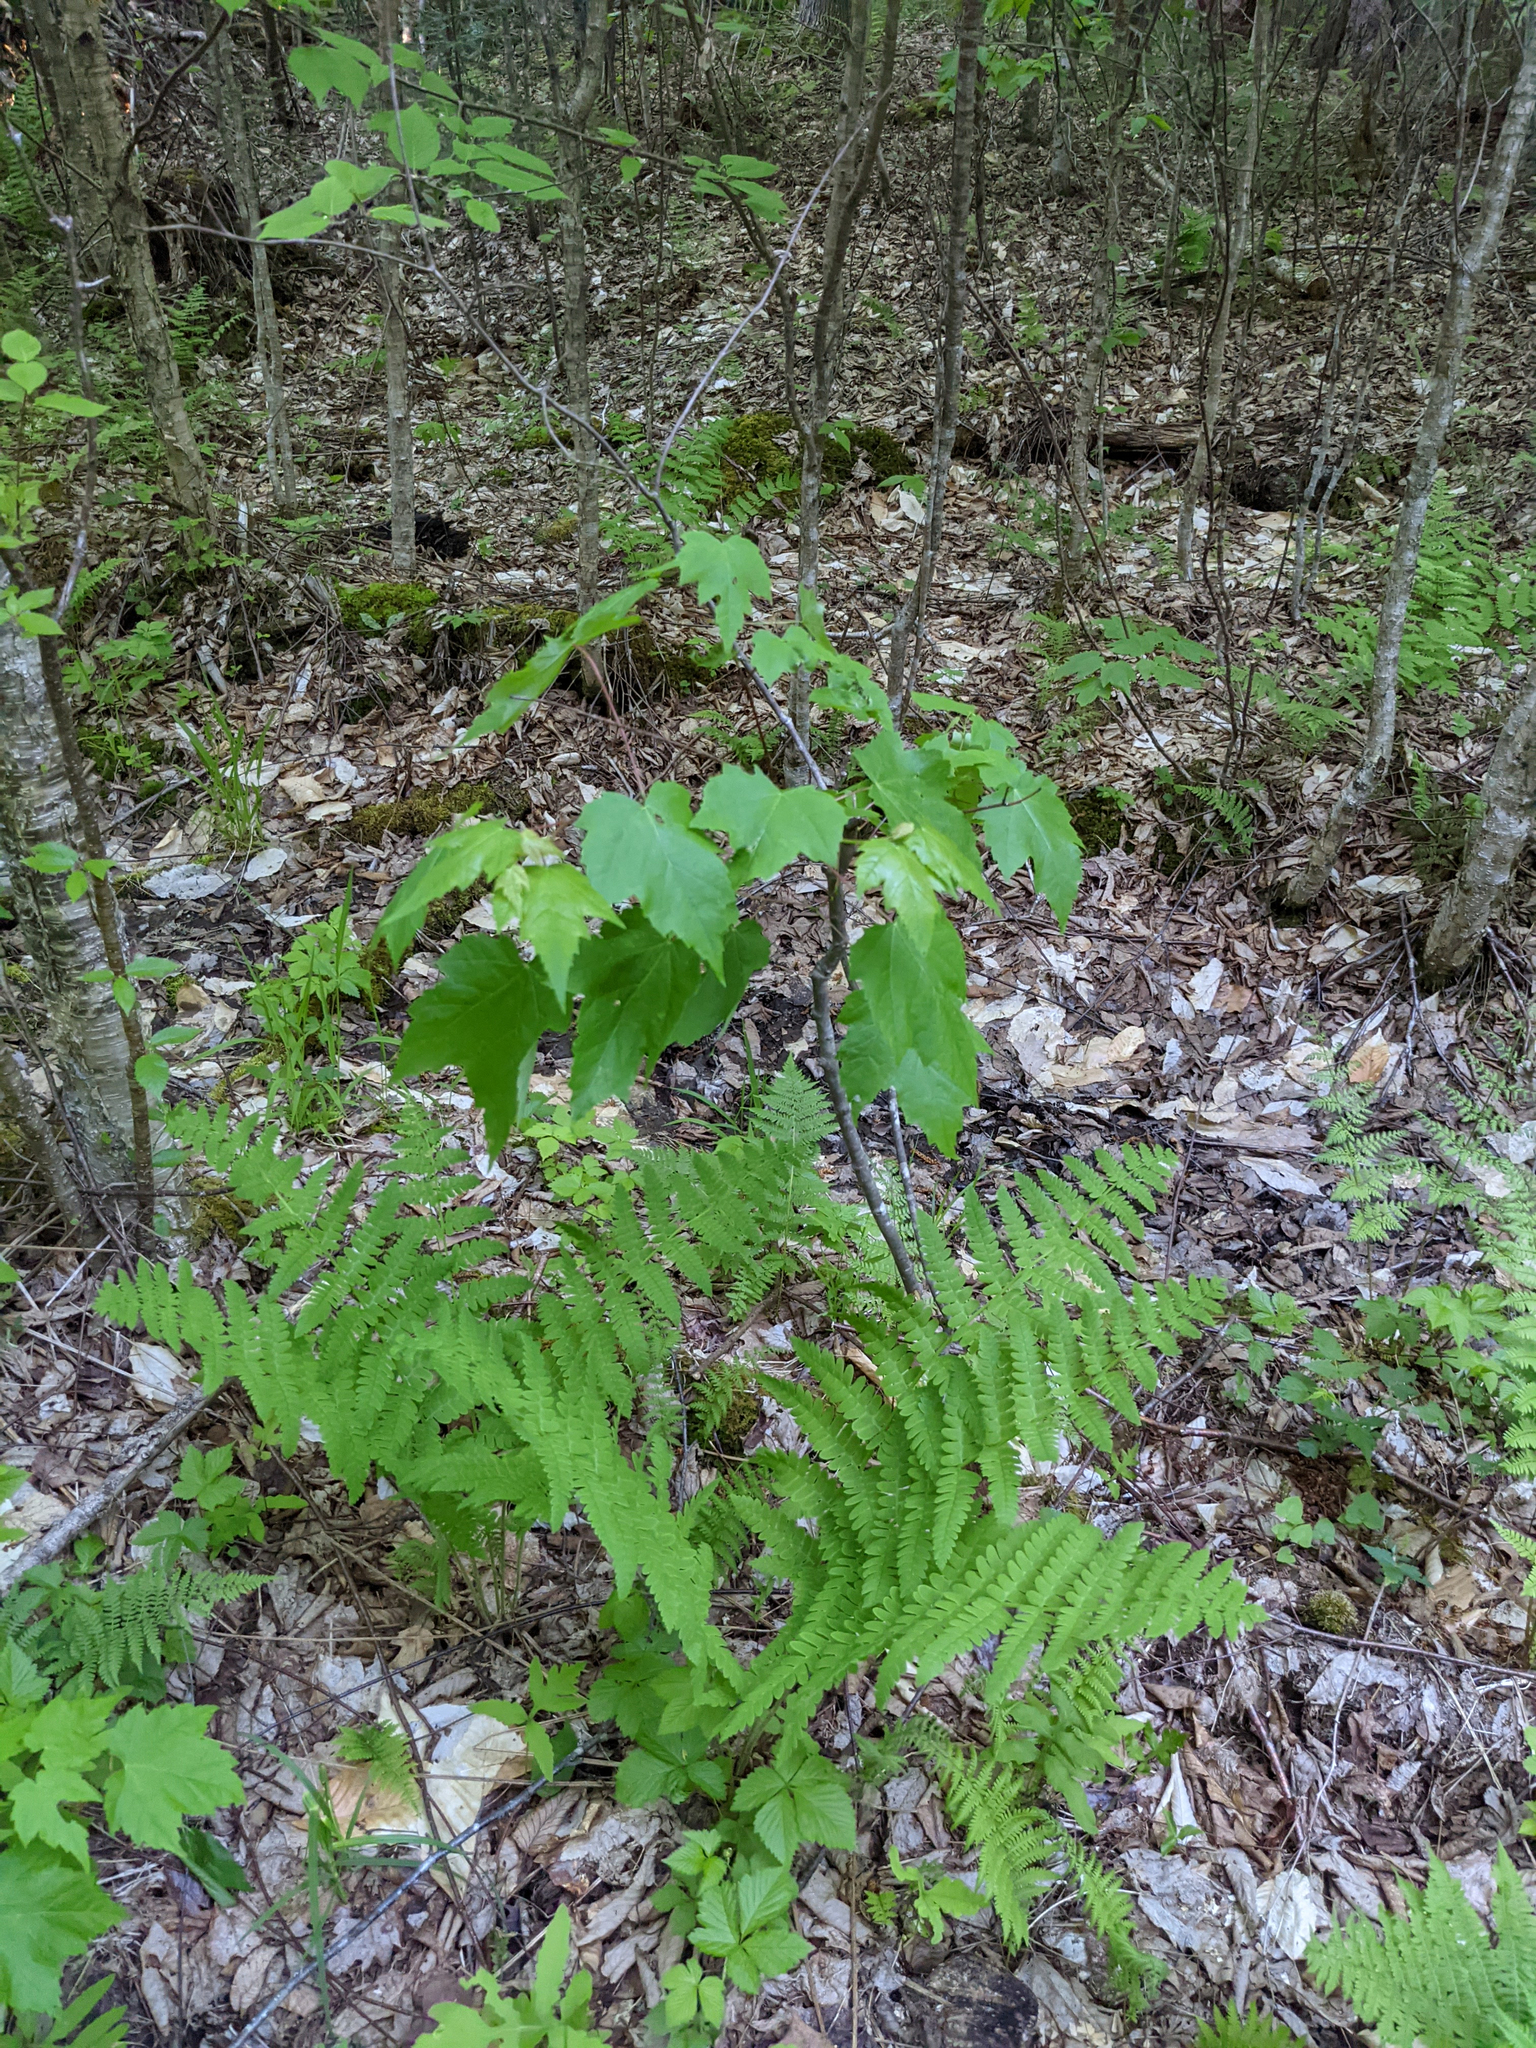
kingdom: Plantae
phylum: Tracheophyta
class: Magnoliopsida
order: Sapindales
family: Sapindaceae
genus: Acer
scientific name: Acer rubrum
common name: Red maple
